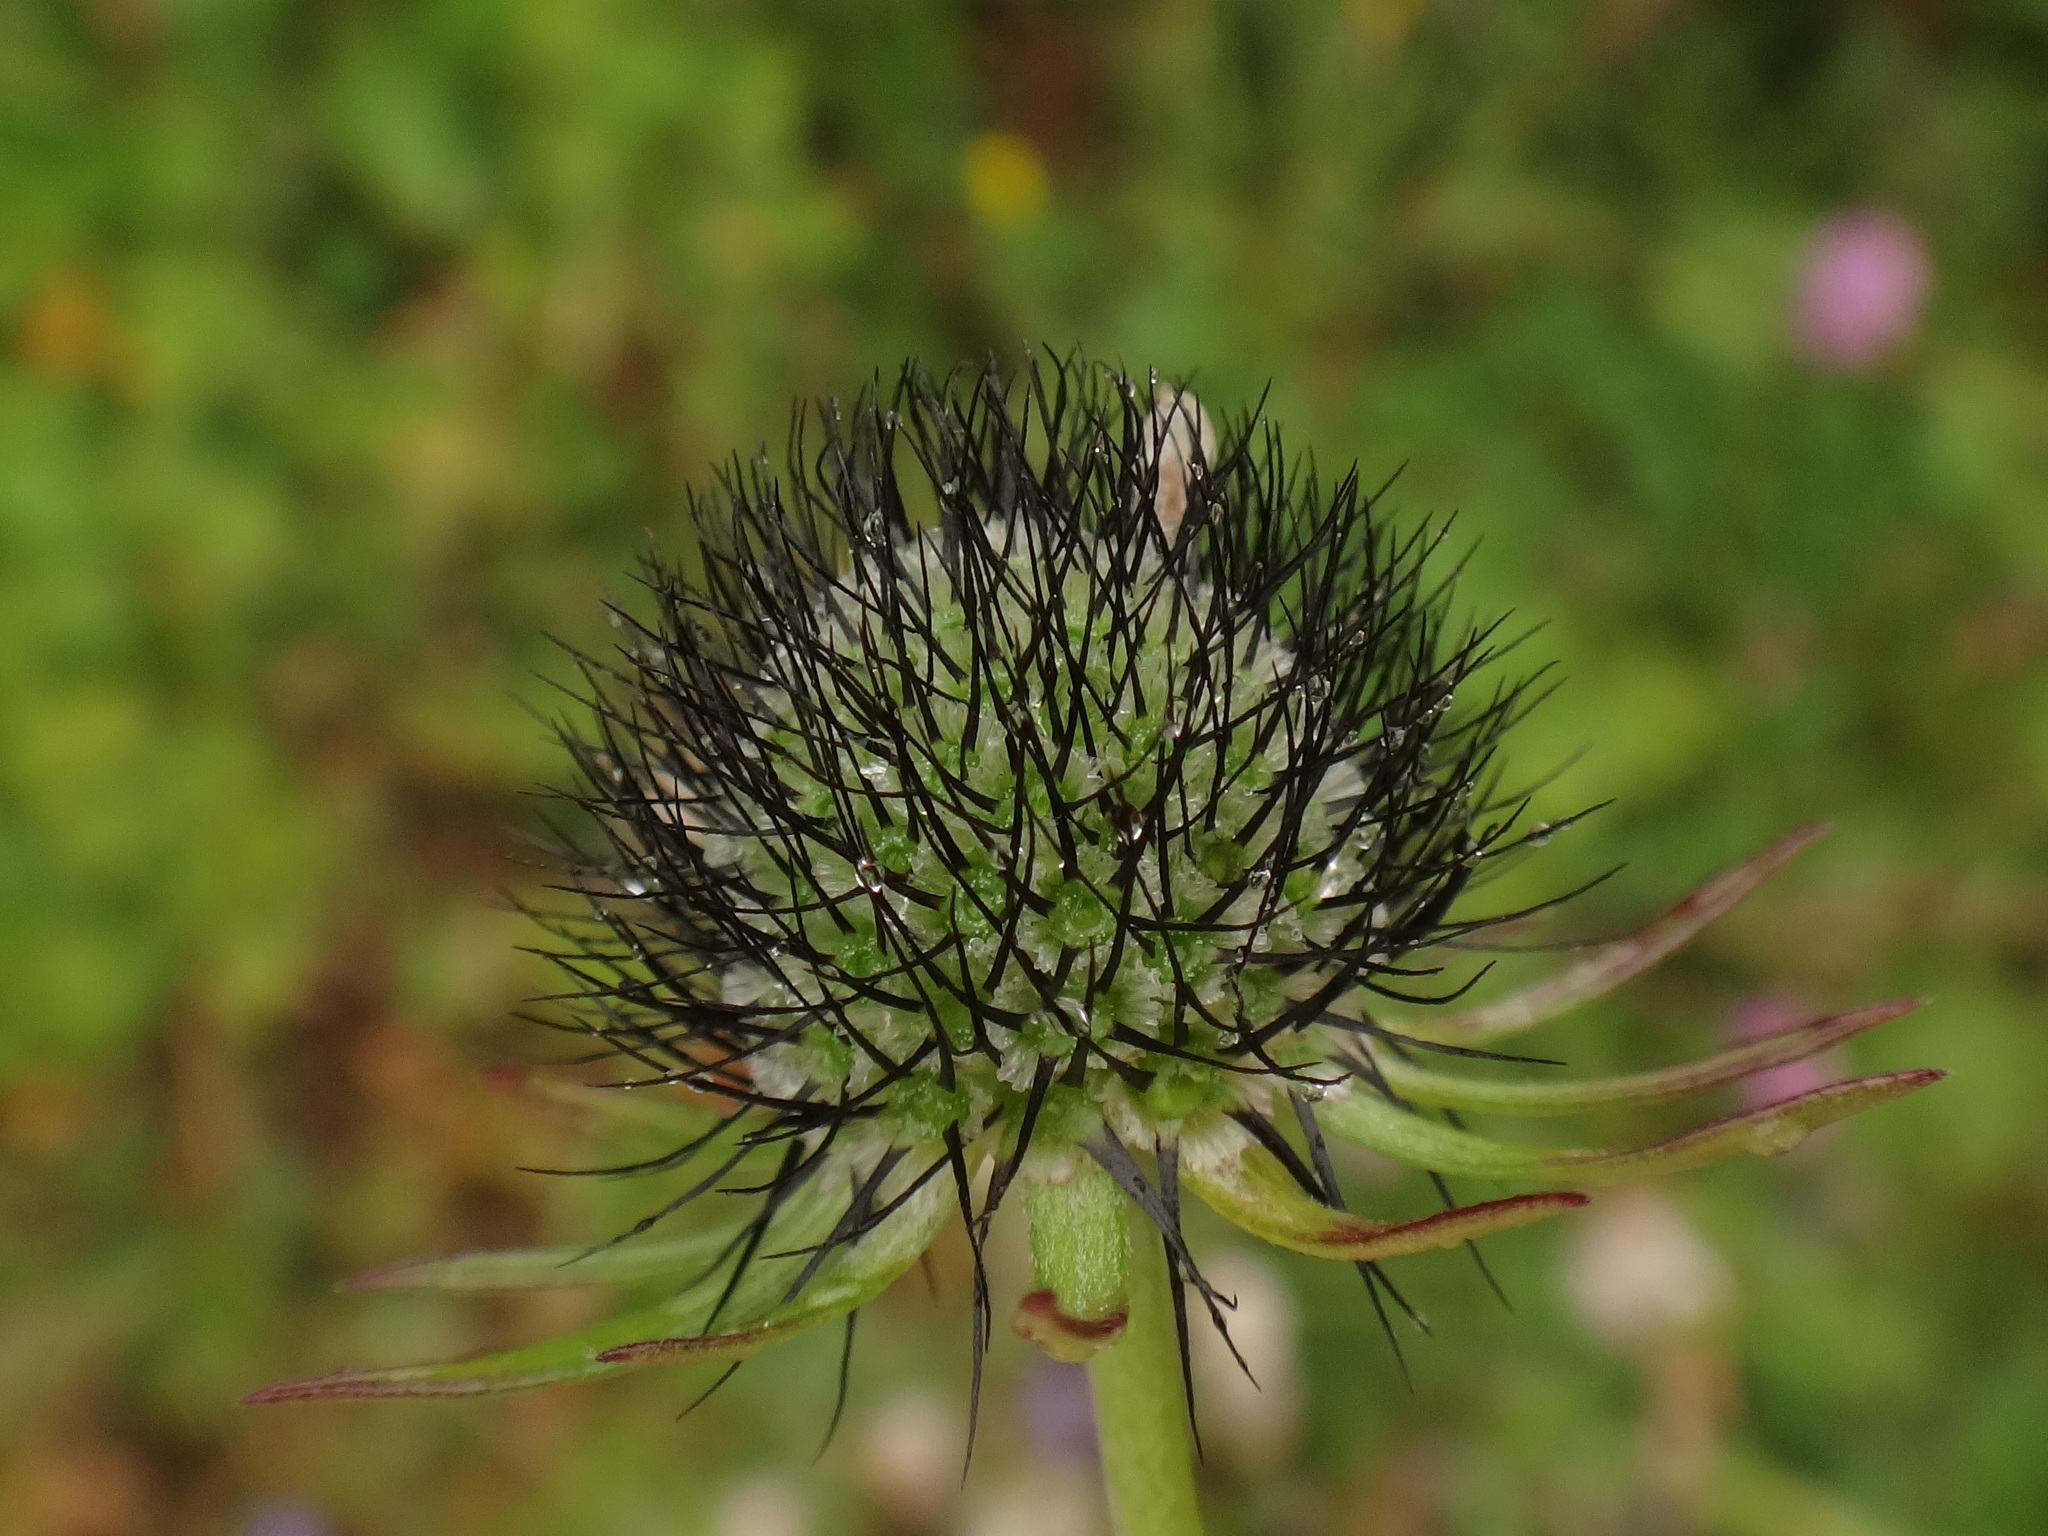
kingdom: Plantae
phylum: Tracheophyta
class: Magnoliopsida
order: Dipsacales
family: Caprifoliaceae
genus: Scabiosa
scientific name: Scabiosa lucida
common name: Shining scabious
